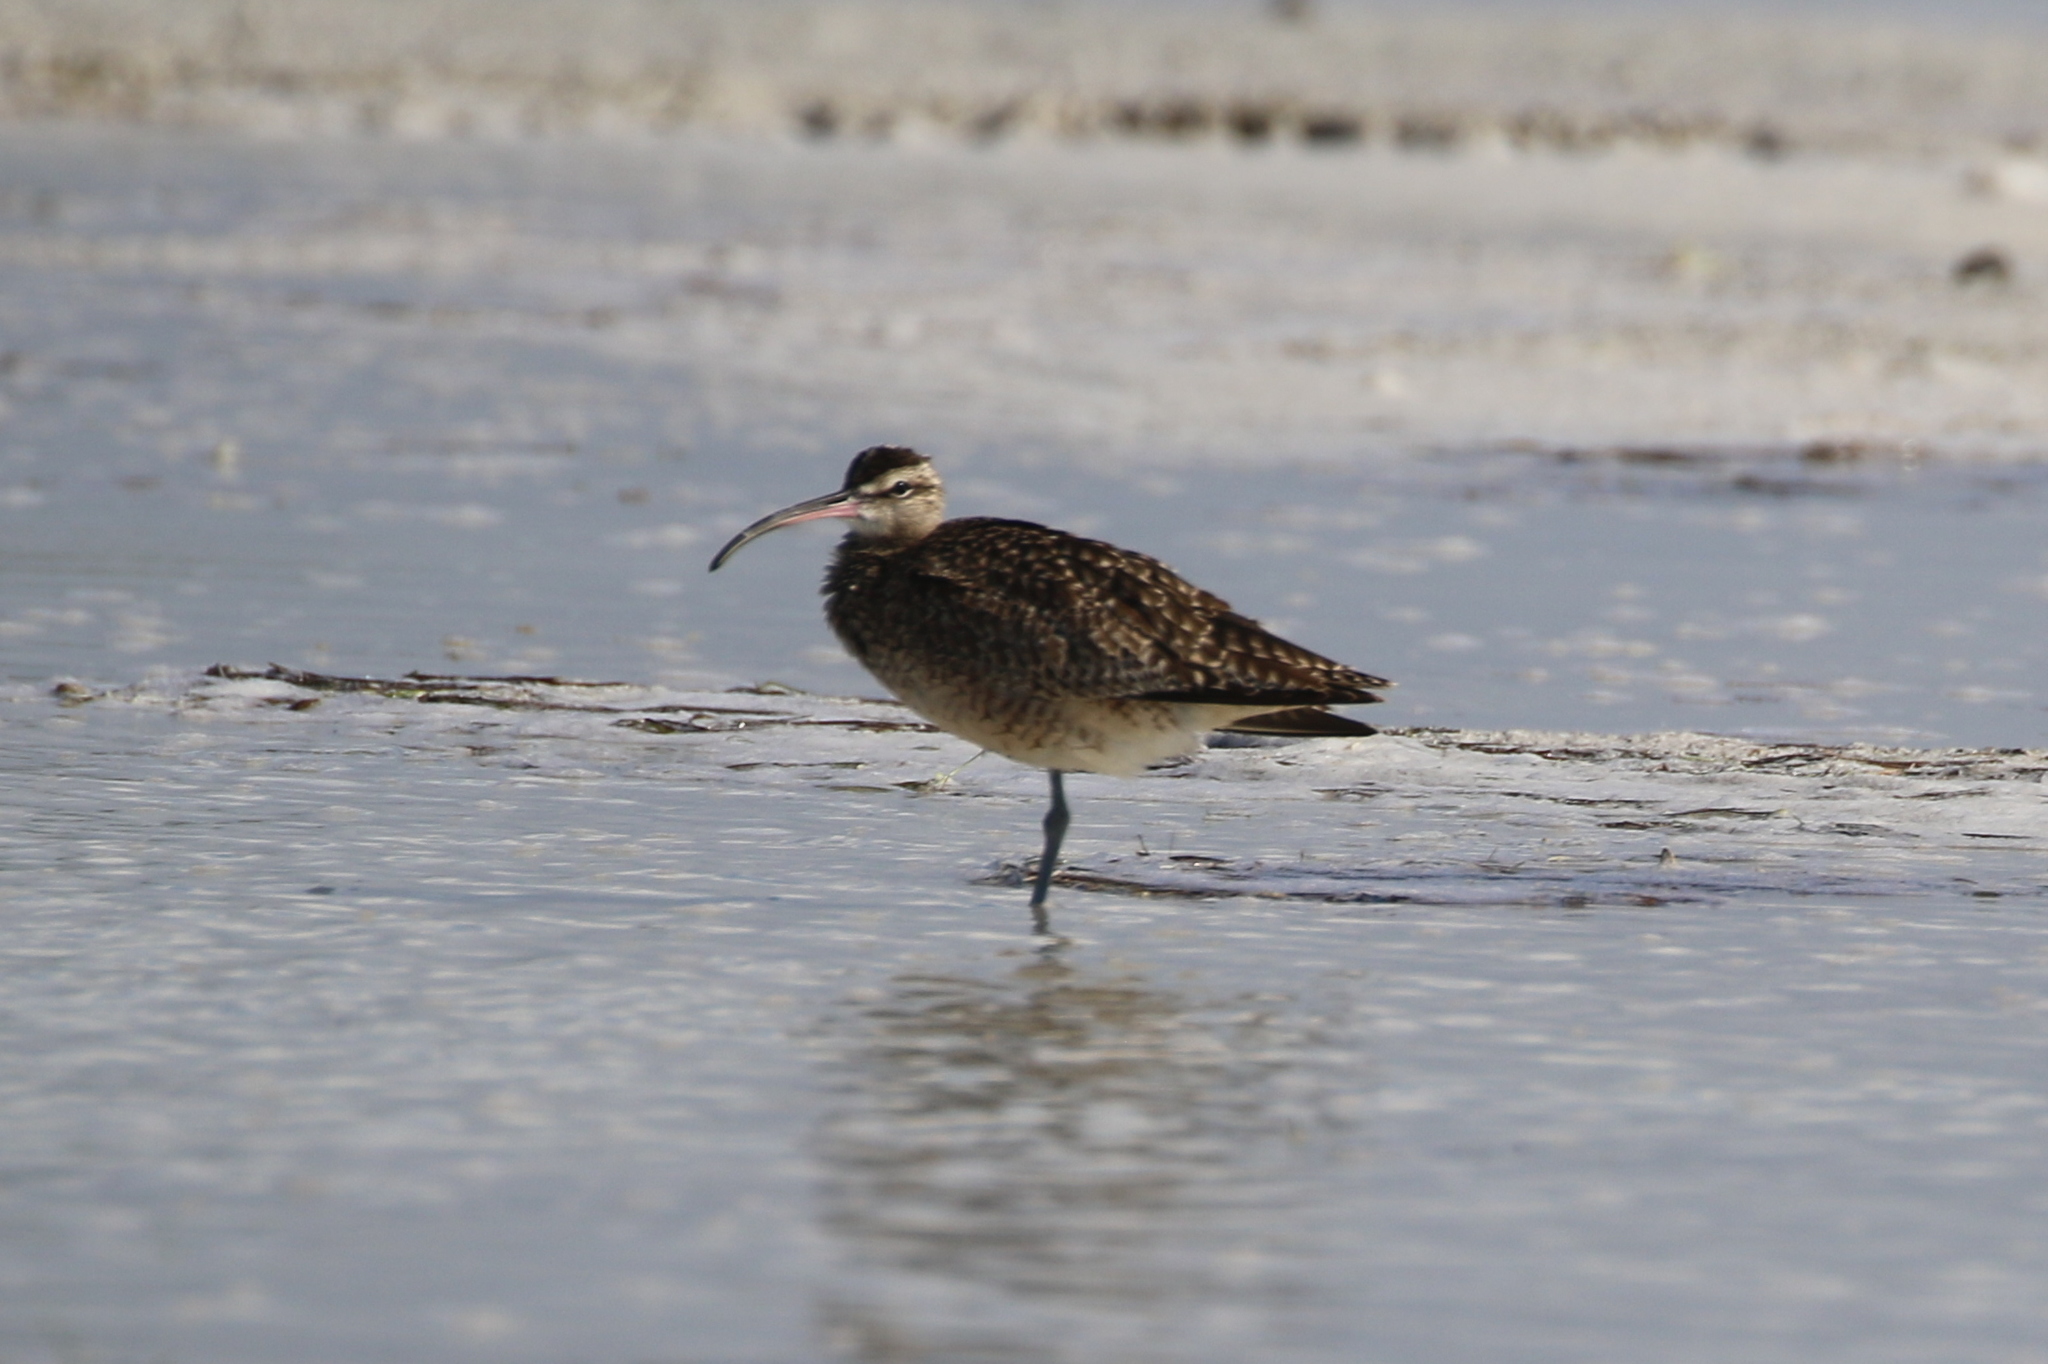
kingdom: Animalia
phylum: Chordata
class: Aves
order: Charadriiformes
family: Scolopacidae
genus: Numenius
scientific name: Numenius phaeopus
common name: Whimbrel
